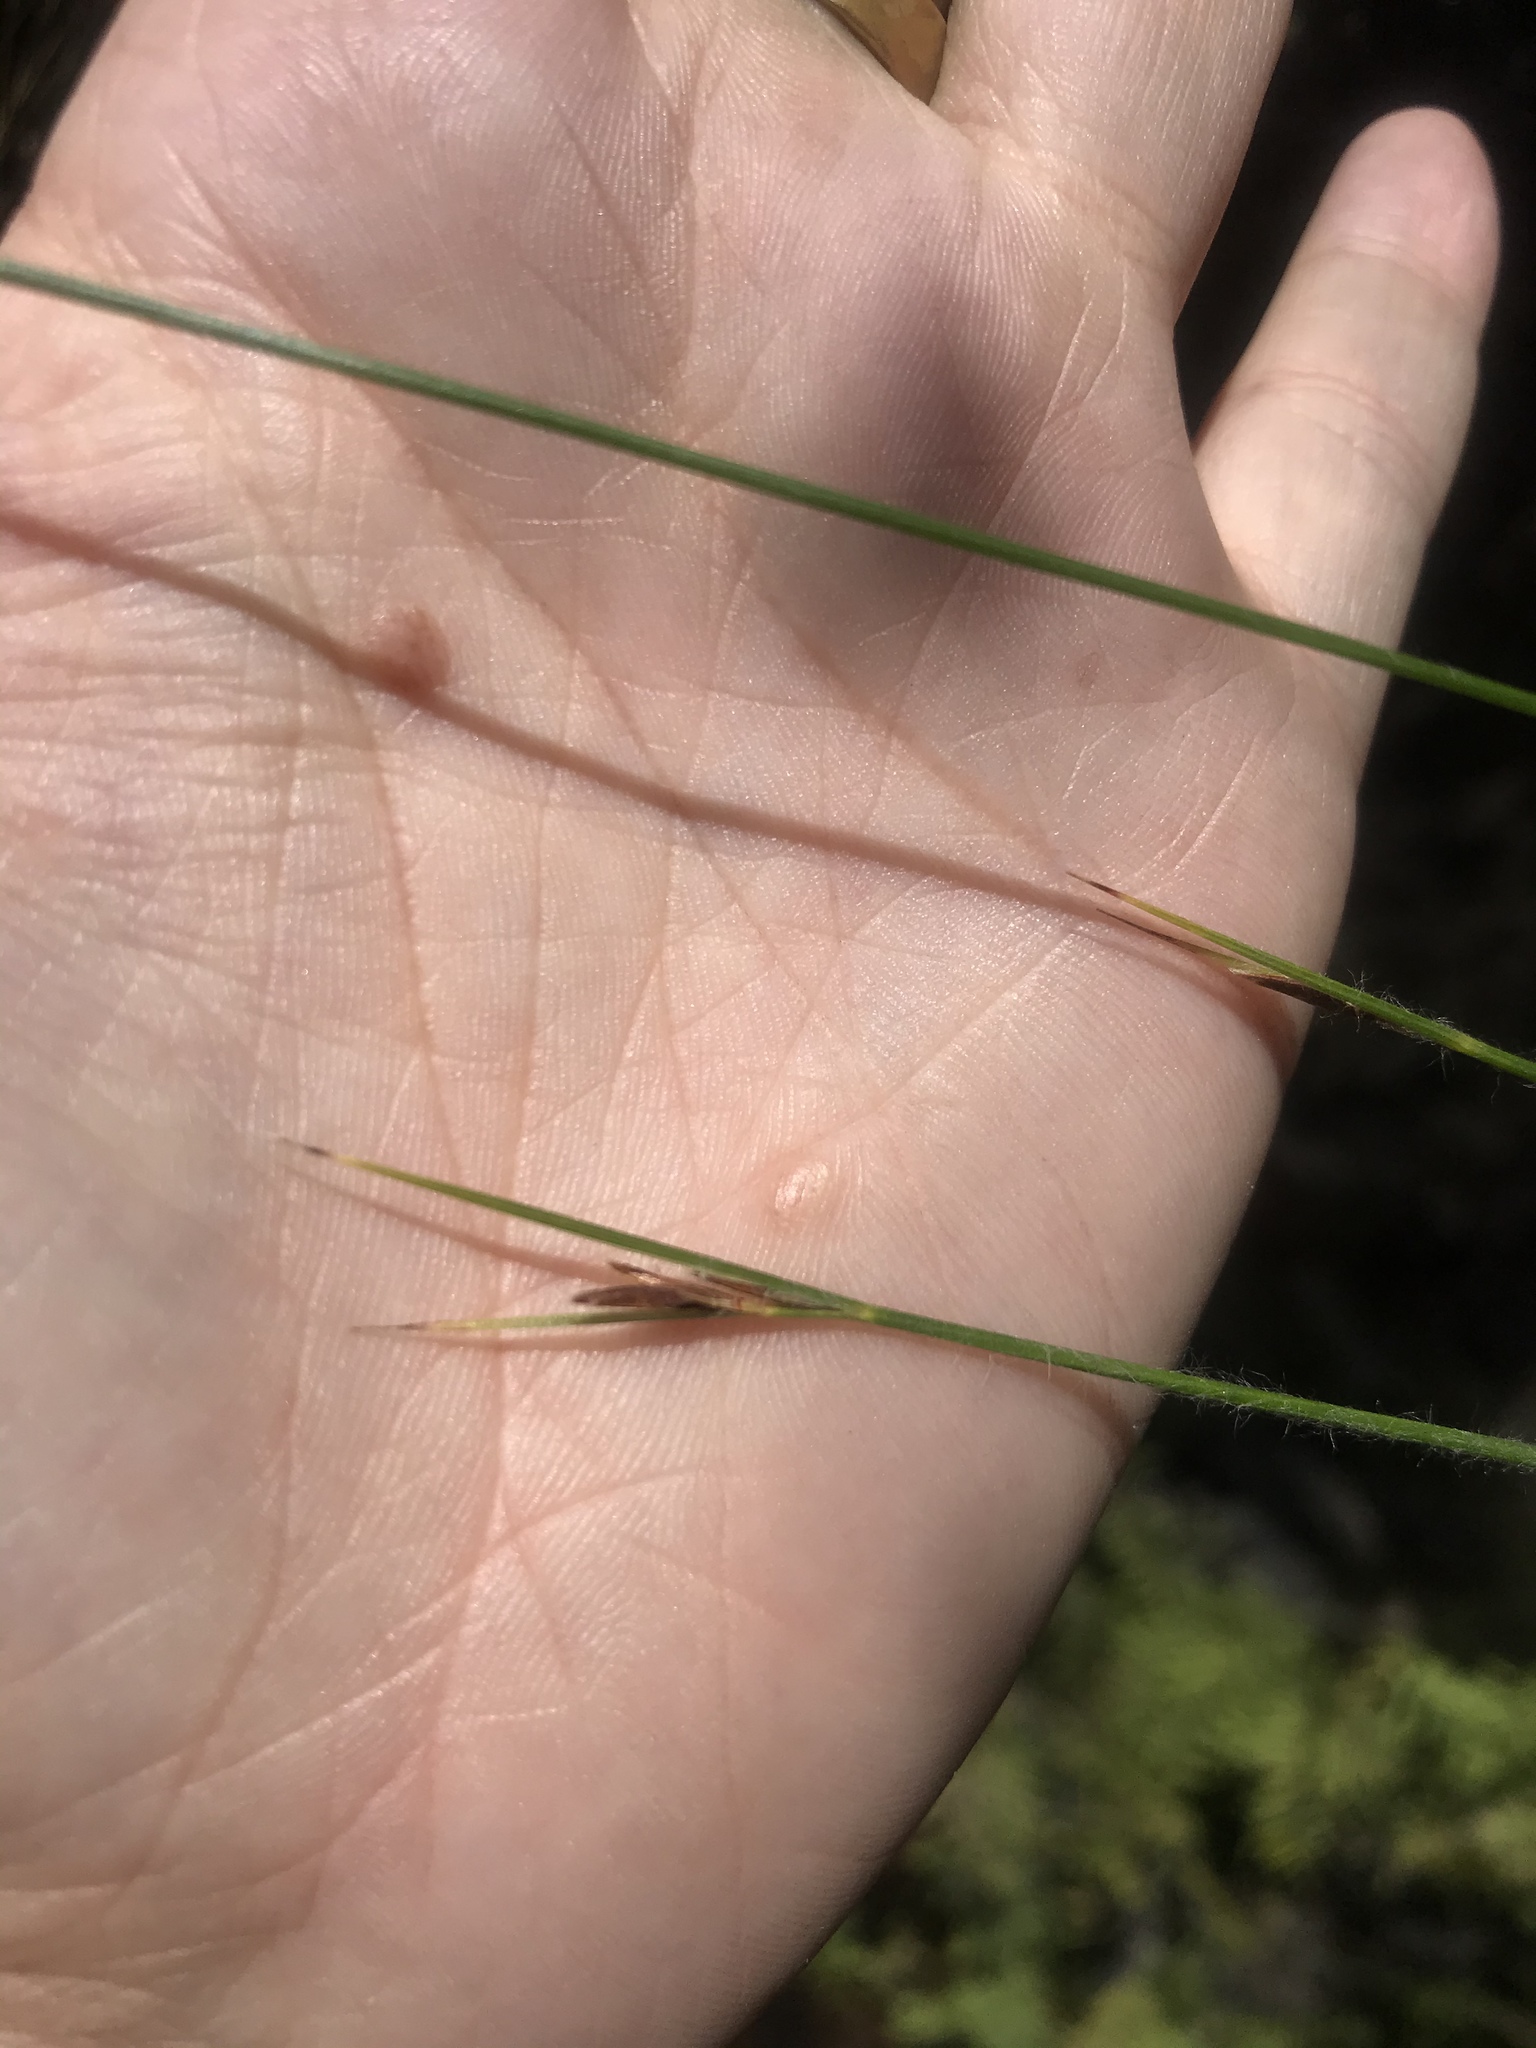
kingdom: Plantae
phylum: Tracheophyta
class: Liliopsida
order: Poales
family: Cyperaceae
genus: Schoenus
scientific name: Schoenus crinitus
